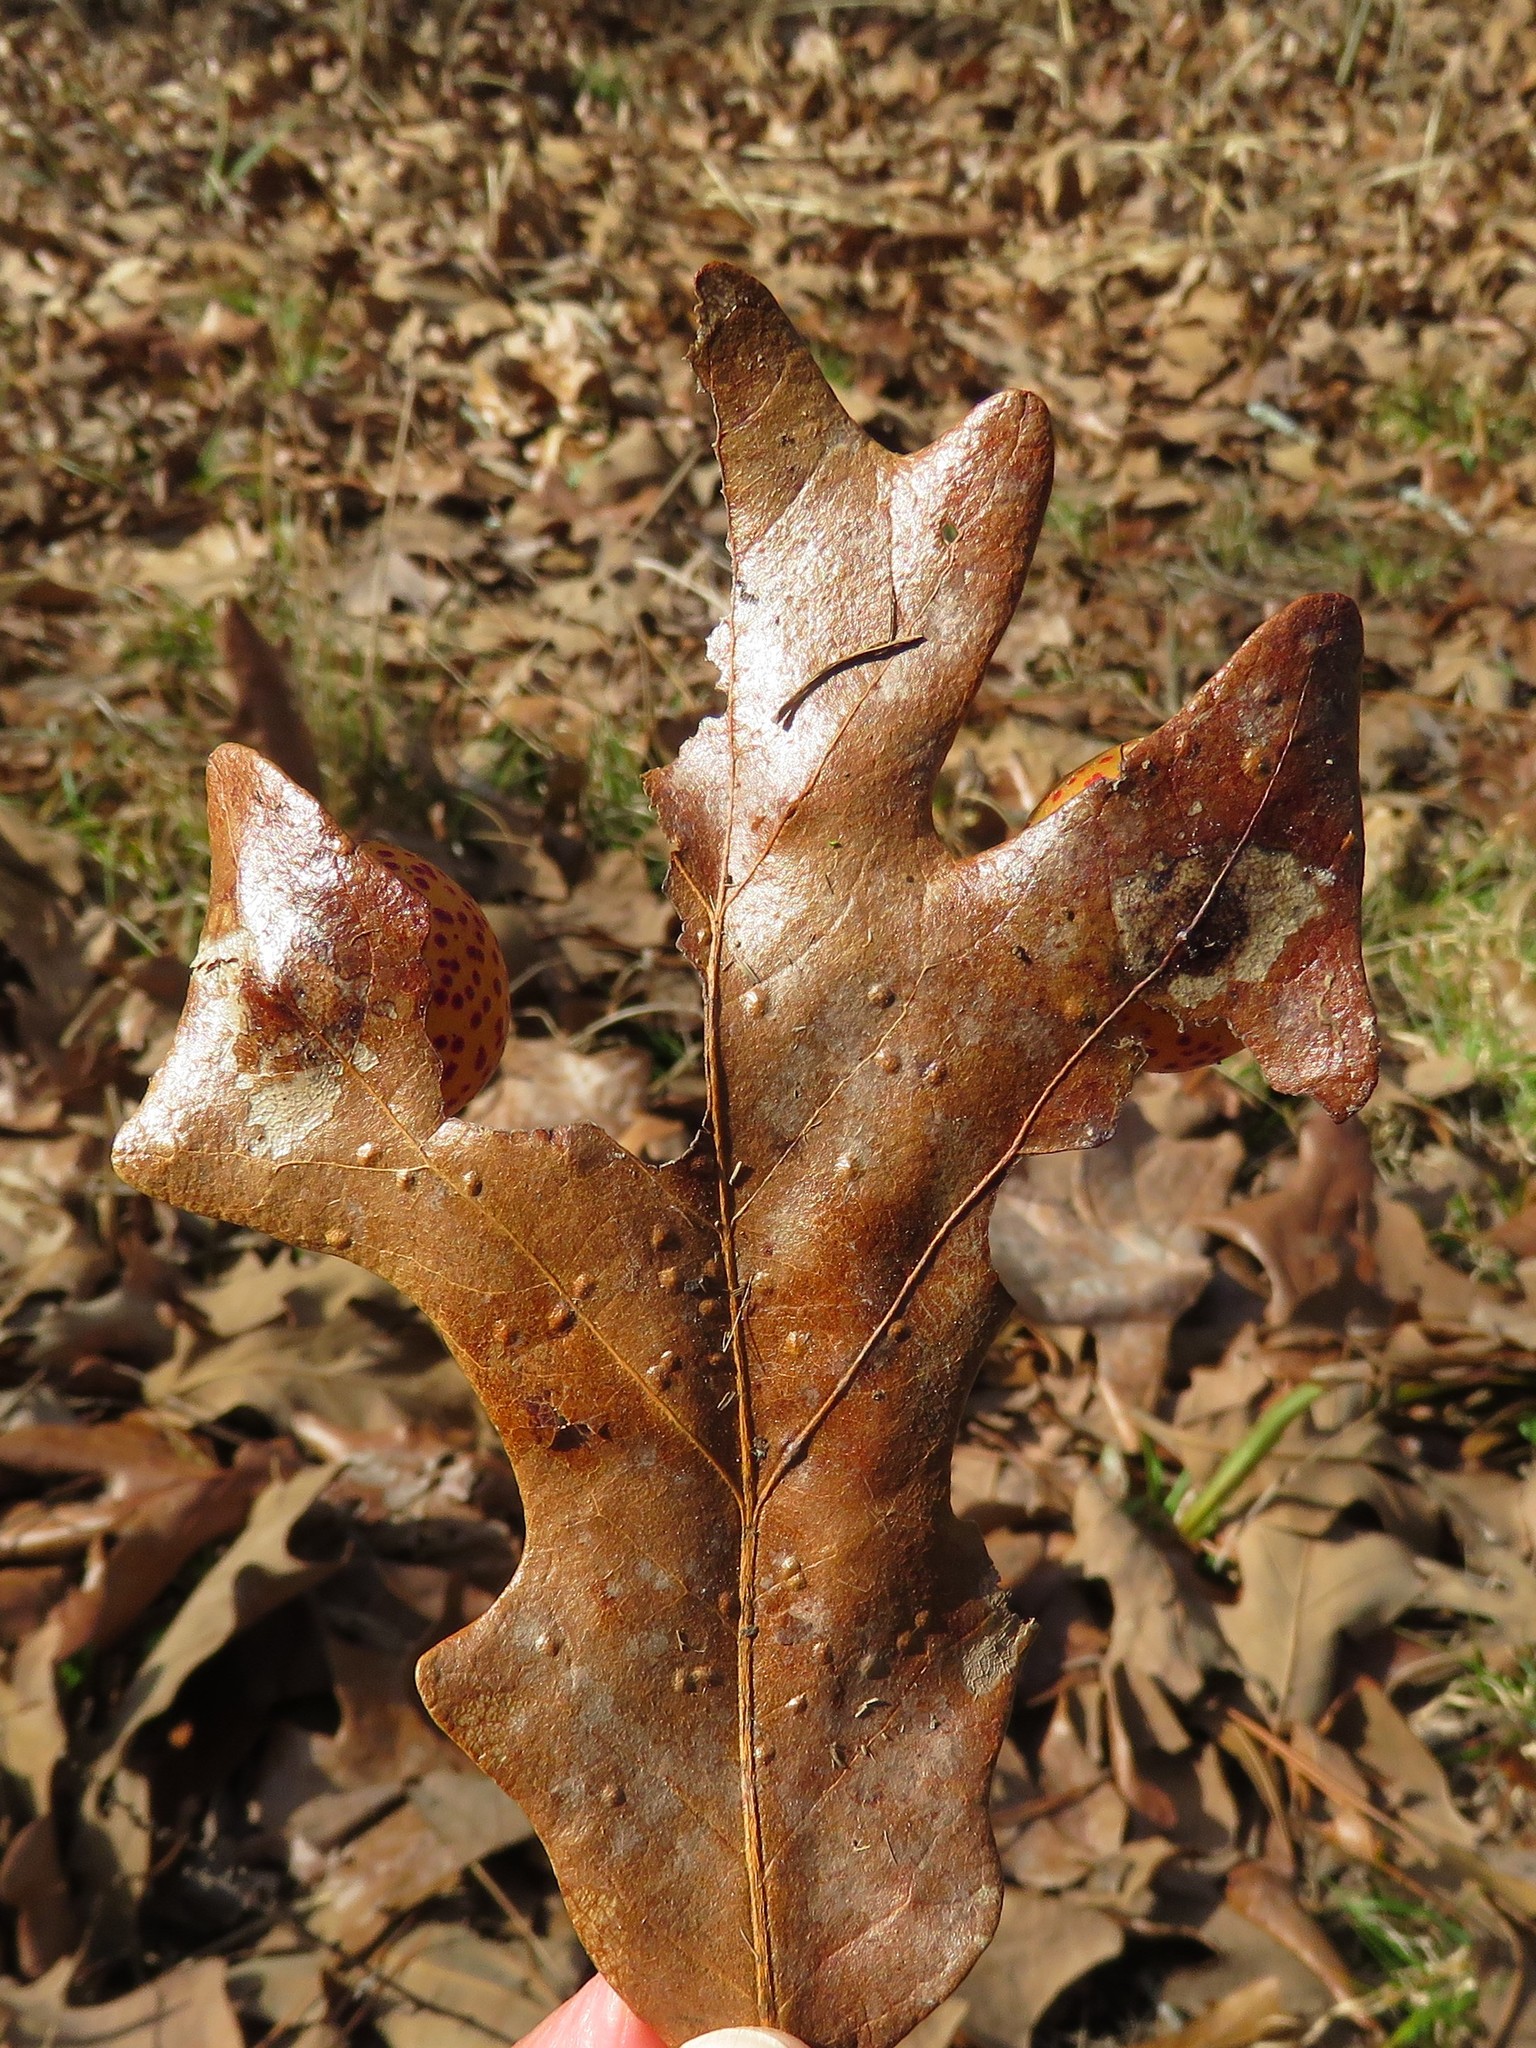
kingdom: Animalia
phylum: Arthropoda
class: Insecta
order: Hymenoptera
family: Cynipidae
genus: Atrusca
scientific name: Atrusca
